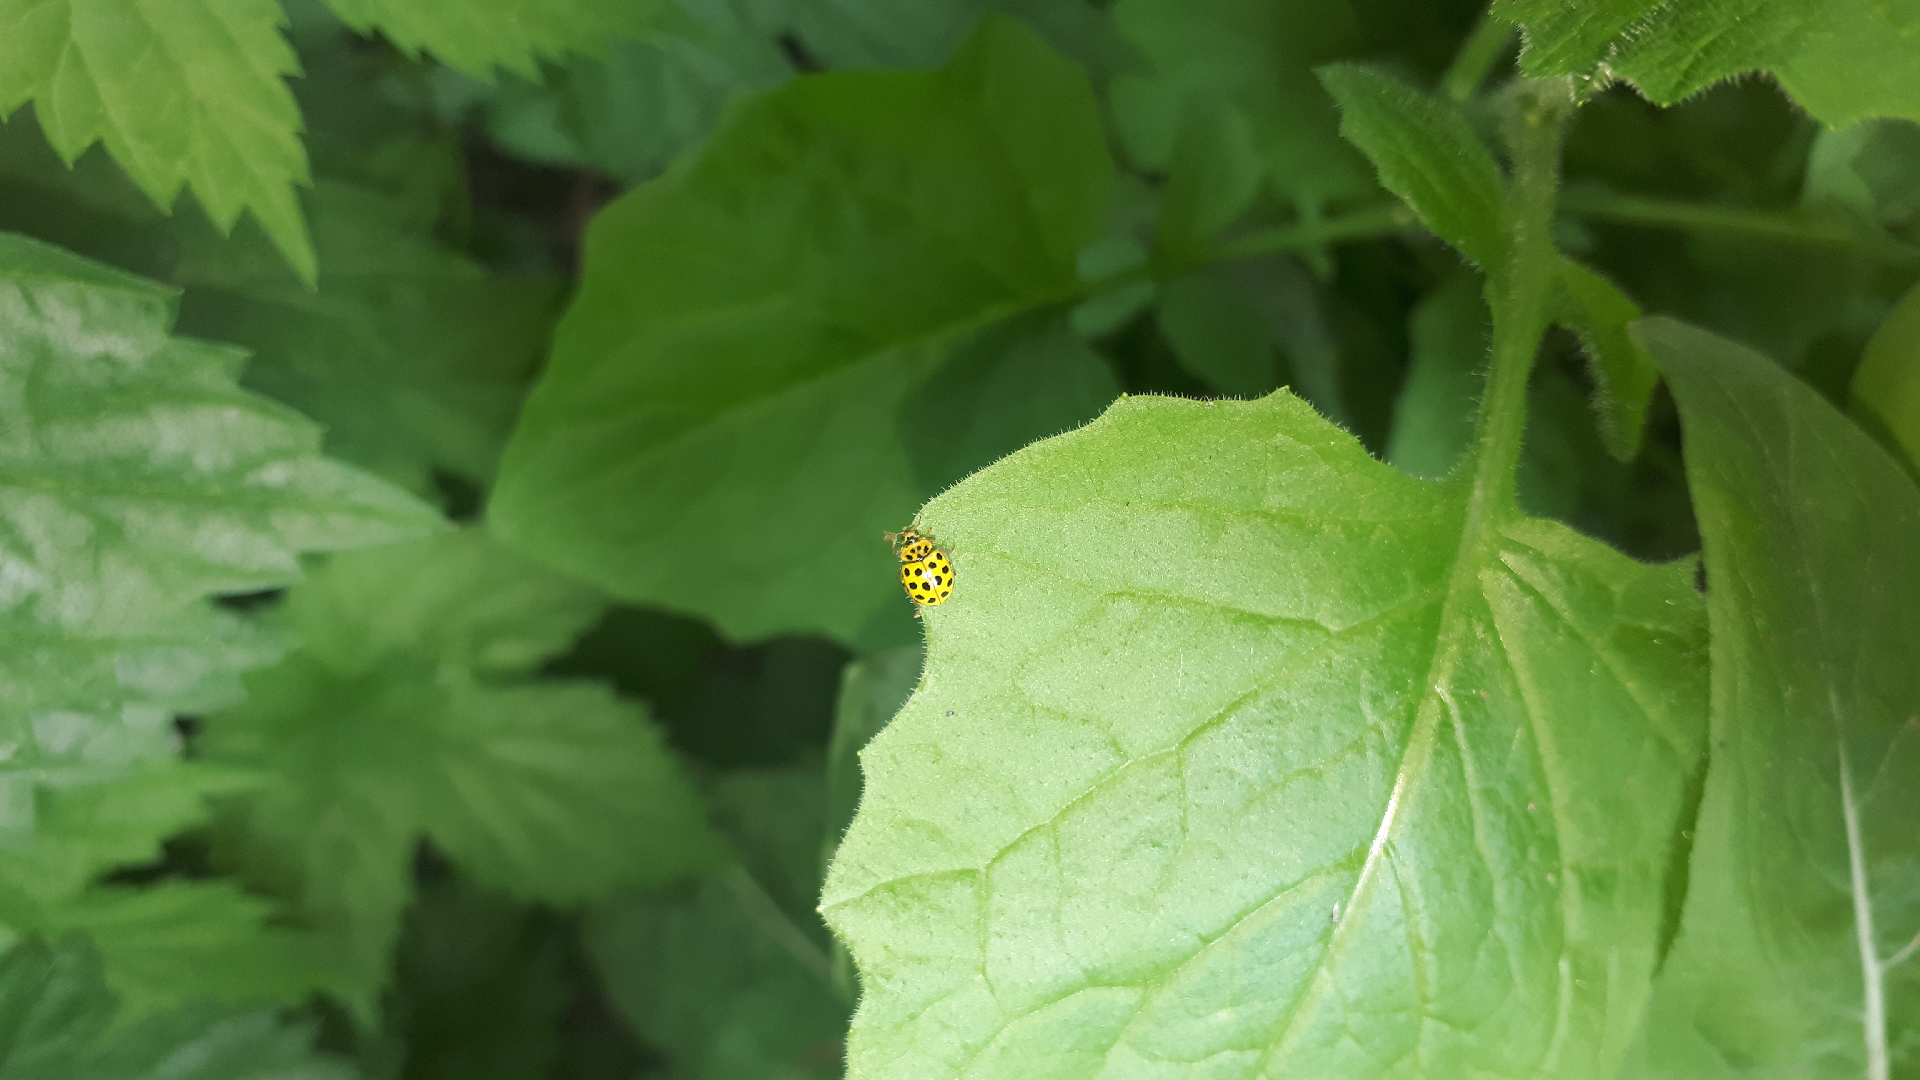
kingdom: Animalia
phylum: Arthropoda
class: Insecta
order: Coleoptera
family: Coccinellidae
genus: Psyllobora
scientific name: Psyllobora vigintiduopunctata
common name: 22-spot ladybird
